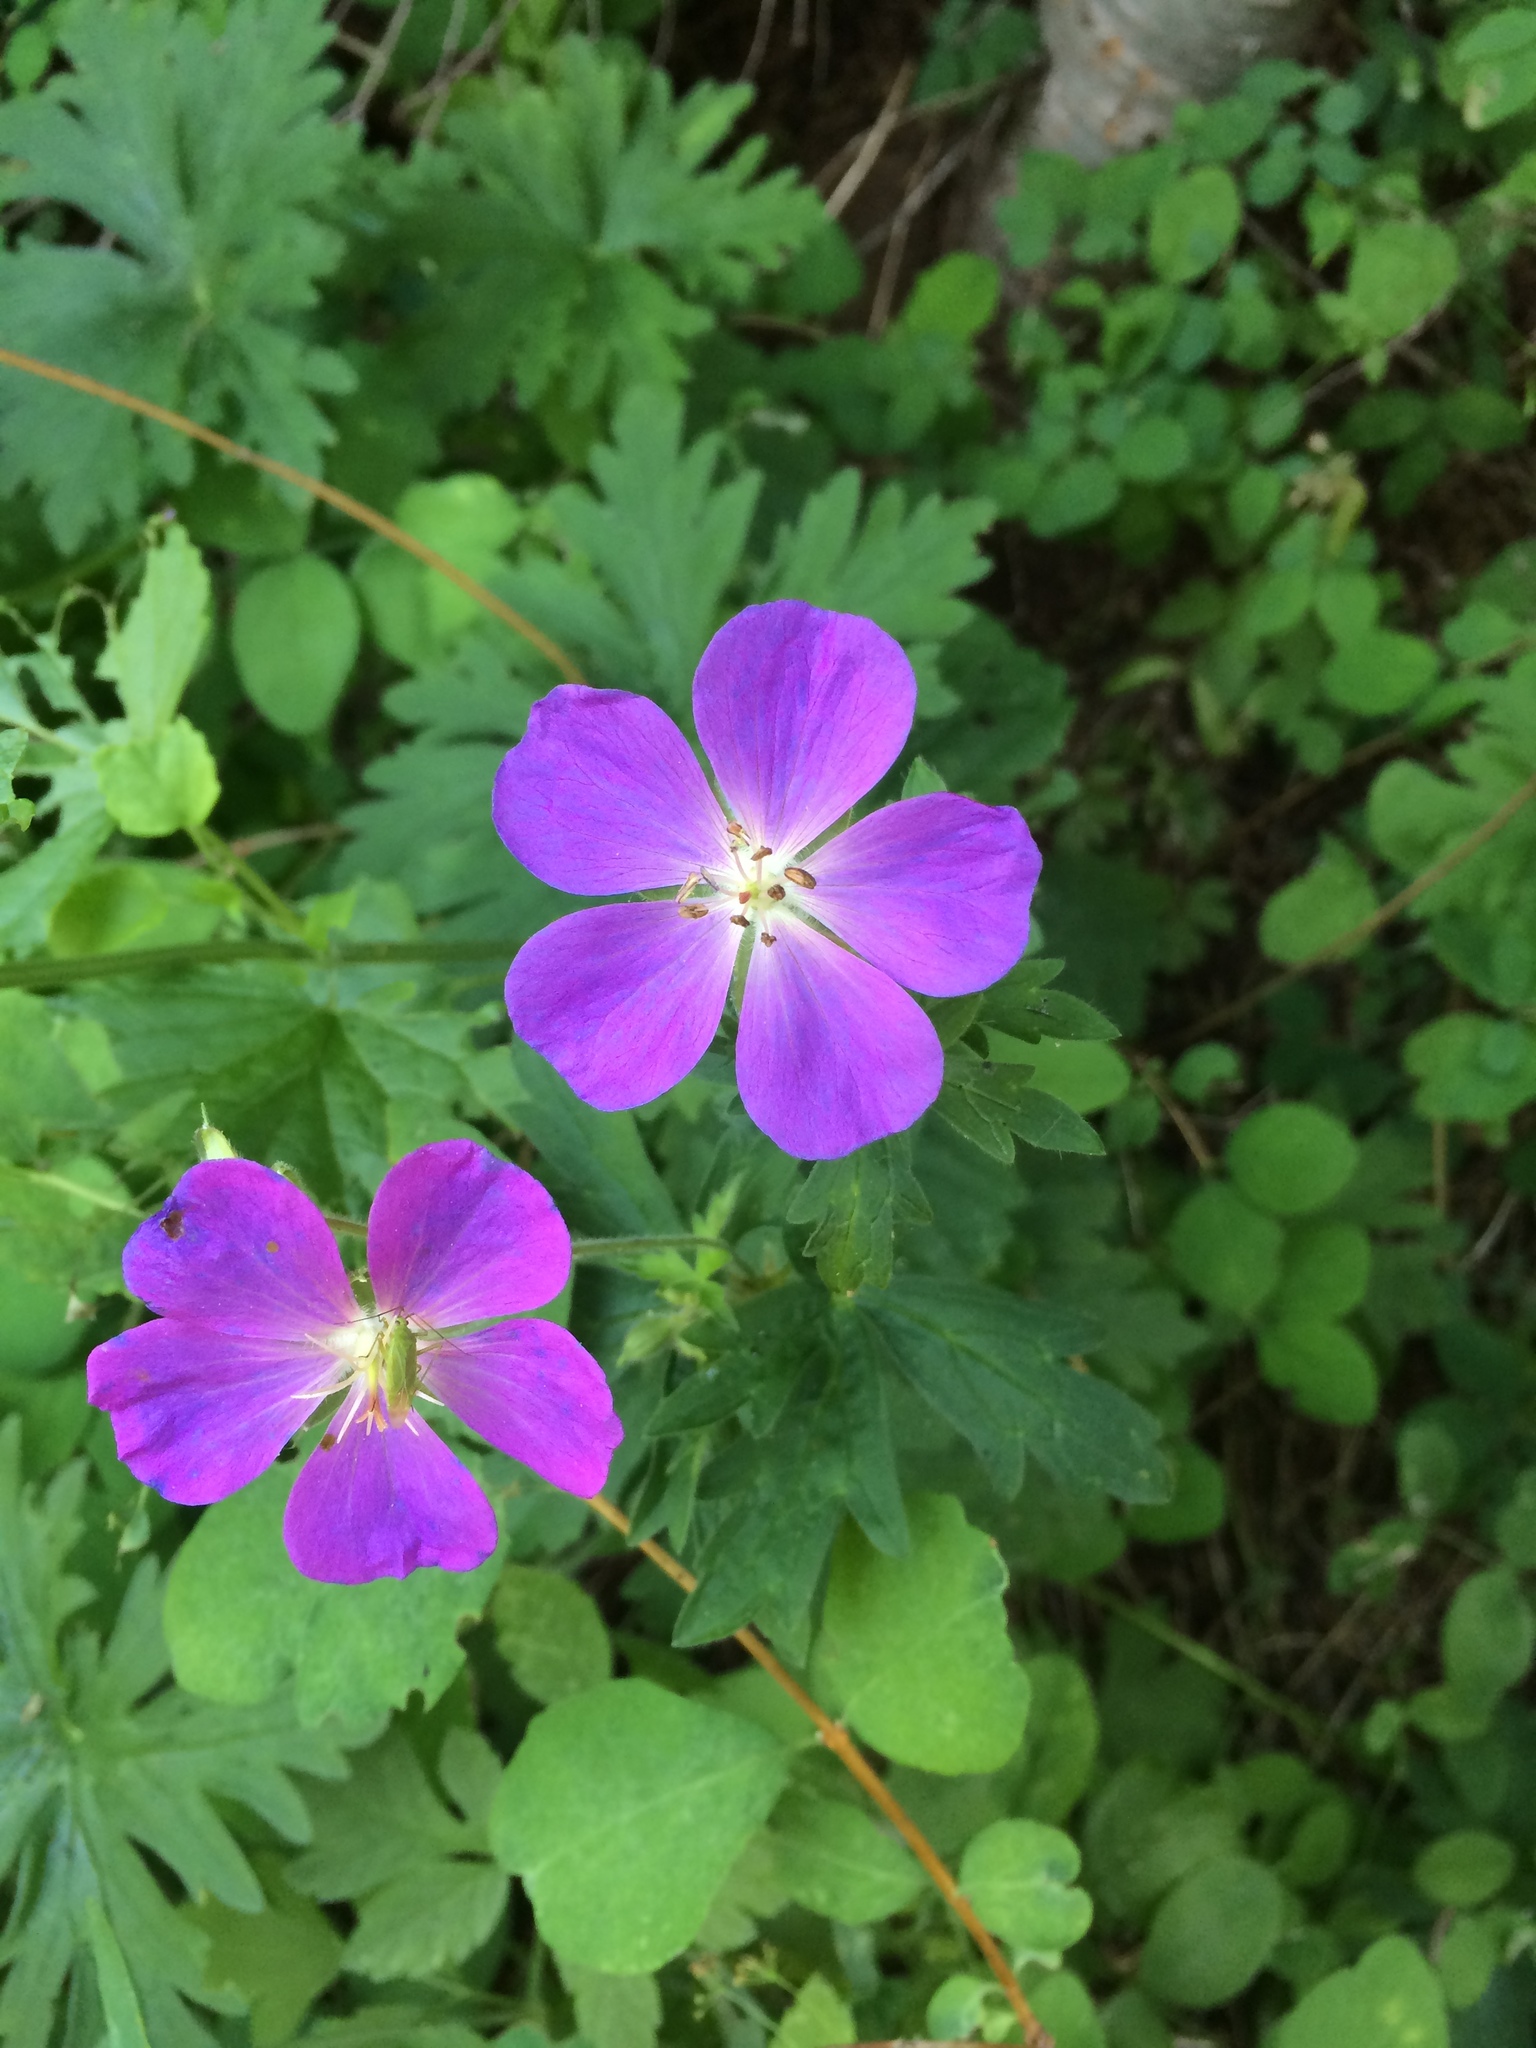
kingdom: Plantae
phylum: Tracheophyta
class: Magnoliopsida
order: Geraniales
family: Geraniaceae
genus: Geranium
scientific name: Geranium oreganum
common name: Oregon crane's-bill
